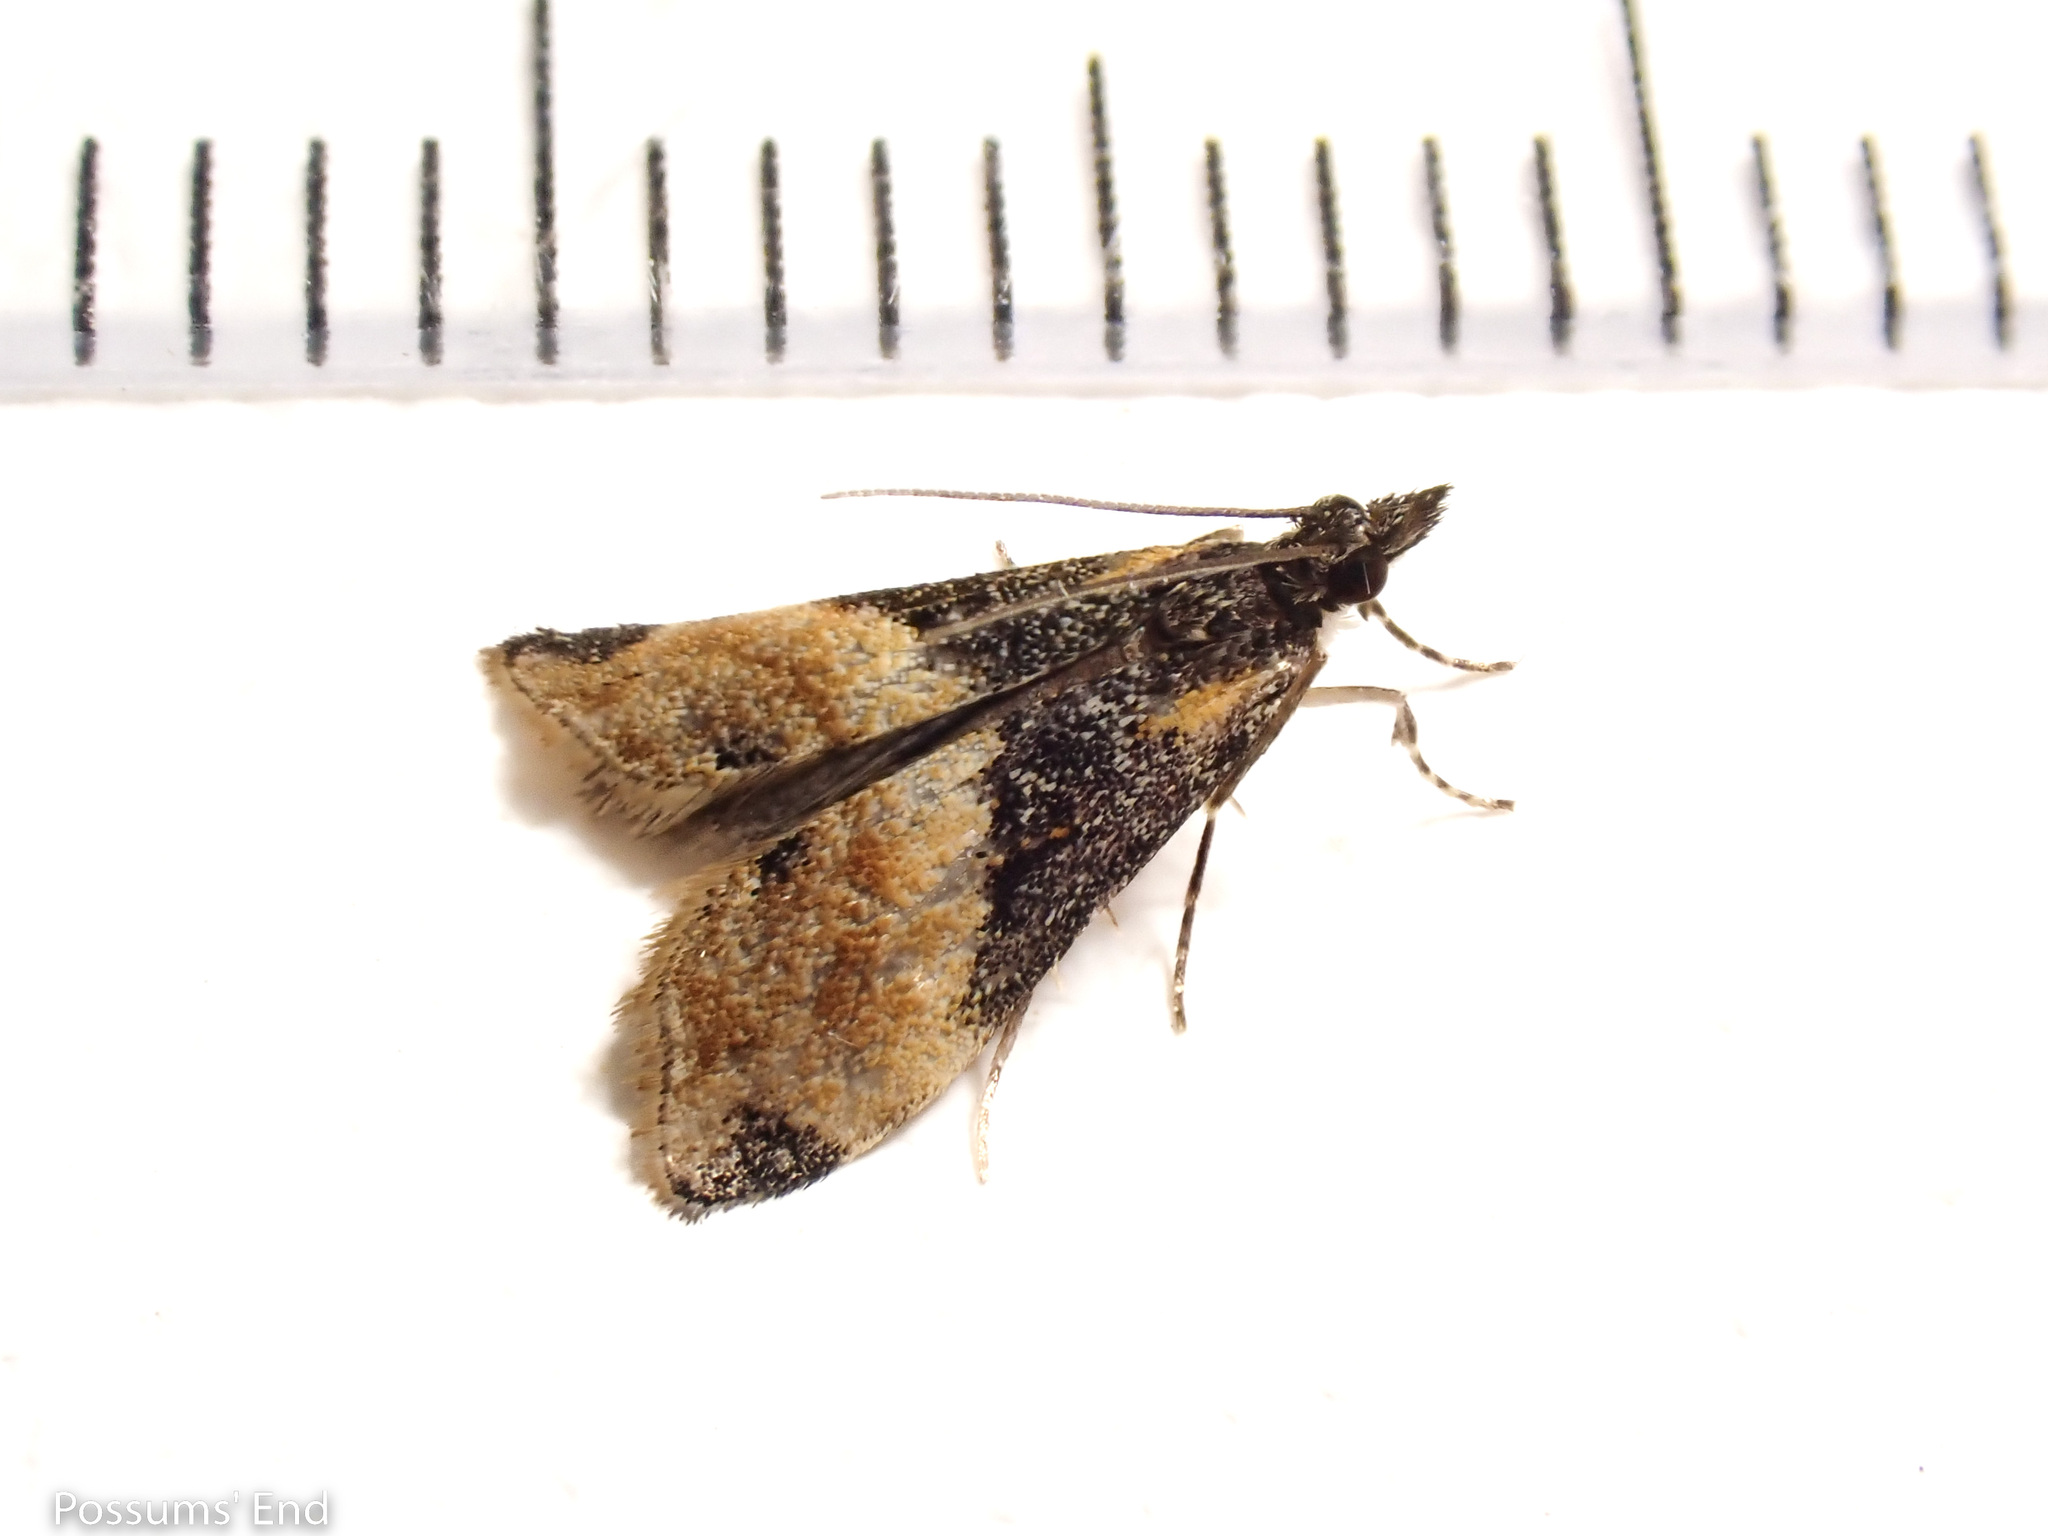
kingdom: Animalia
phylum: Arthropoda
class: Insecta
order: Lepidoptera
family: Crambidae
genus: Eudonia
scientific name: Eudonia chlamydota
